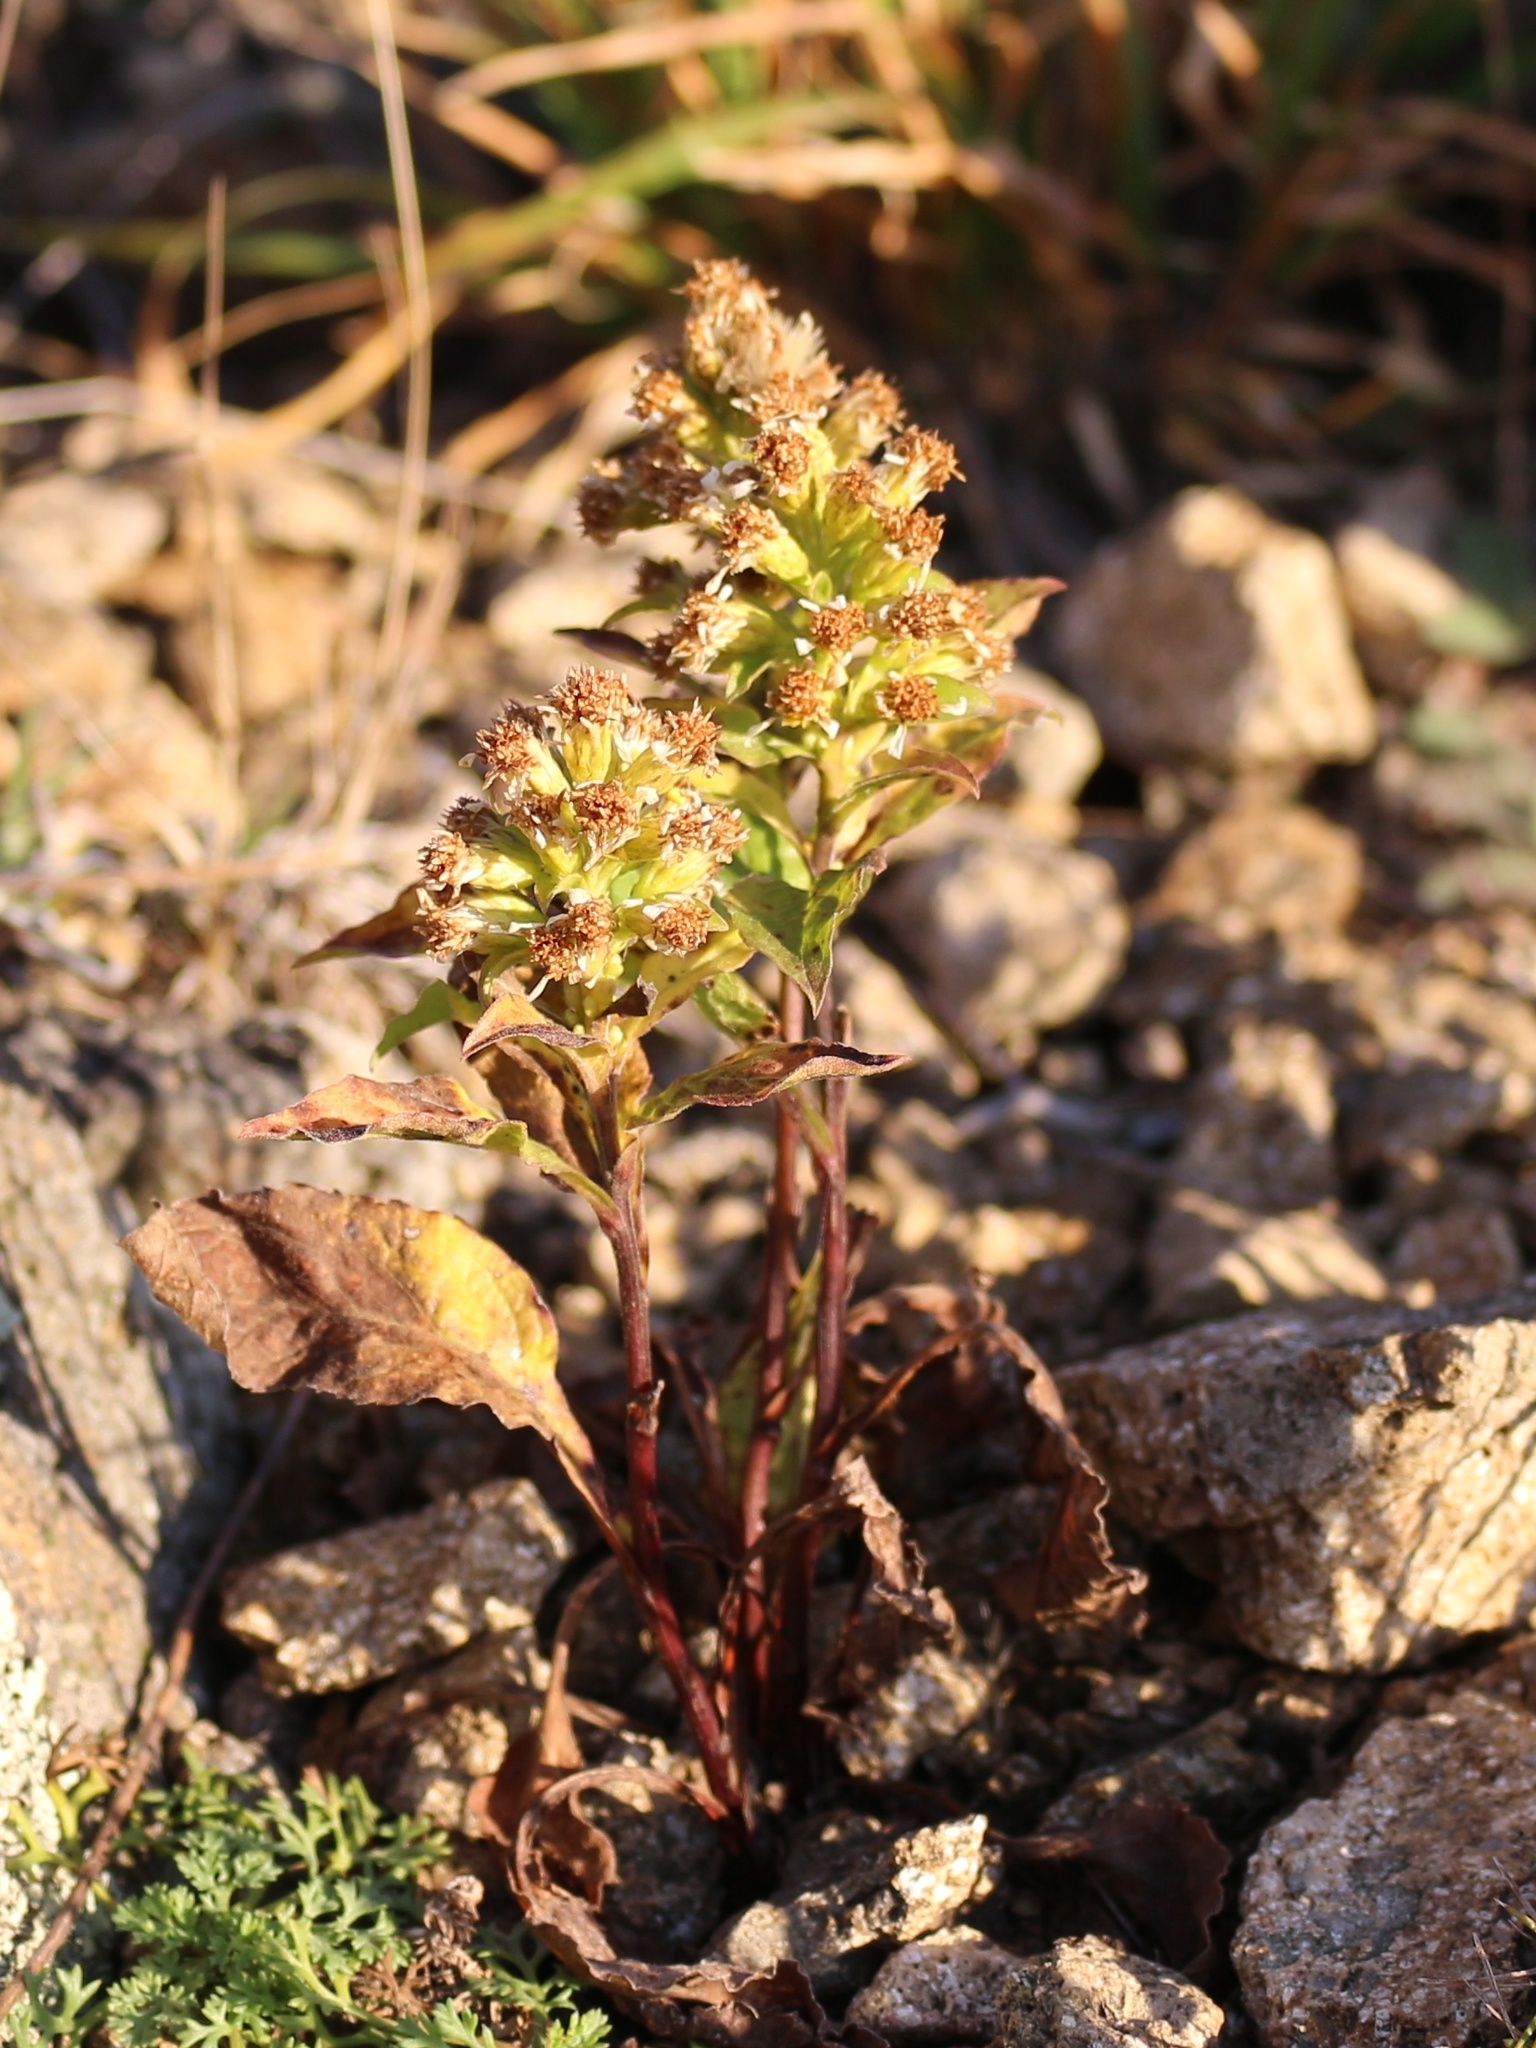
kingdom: Plantae
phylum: Tracheophyta
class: Magnoliopsida
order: Asterales
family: Asteraceae
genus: Solidago
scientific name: Solidago virgaurea
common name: Goldenrod
